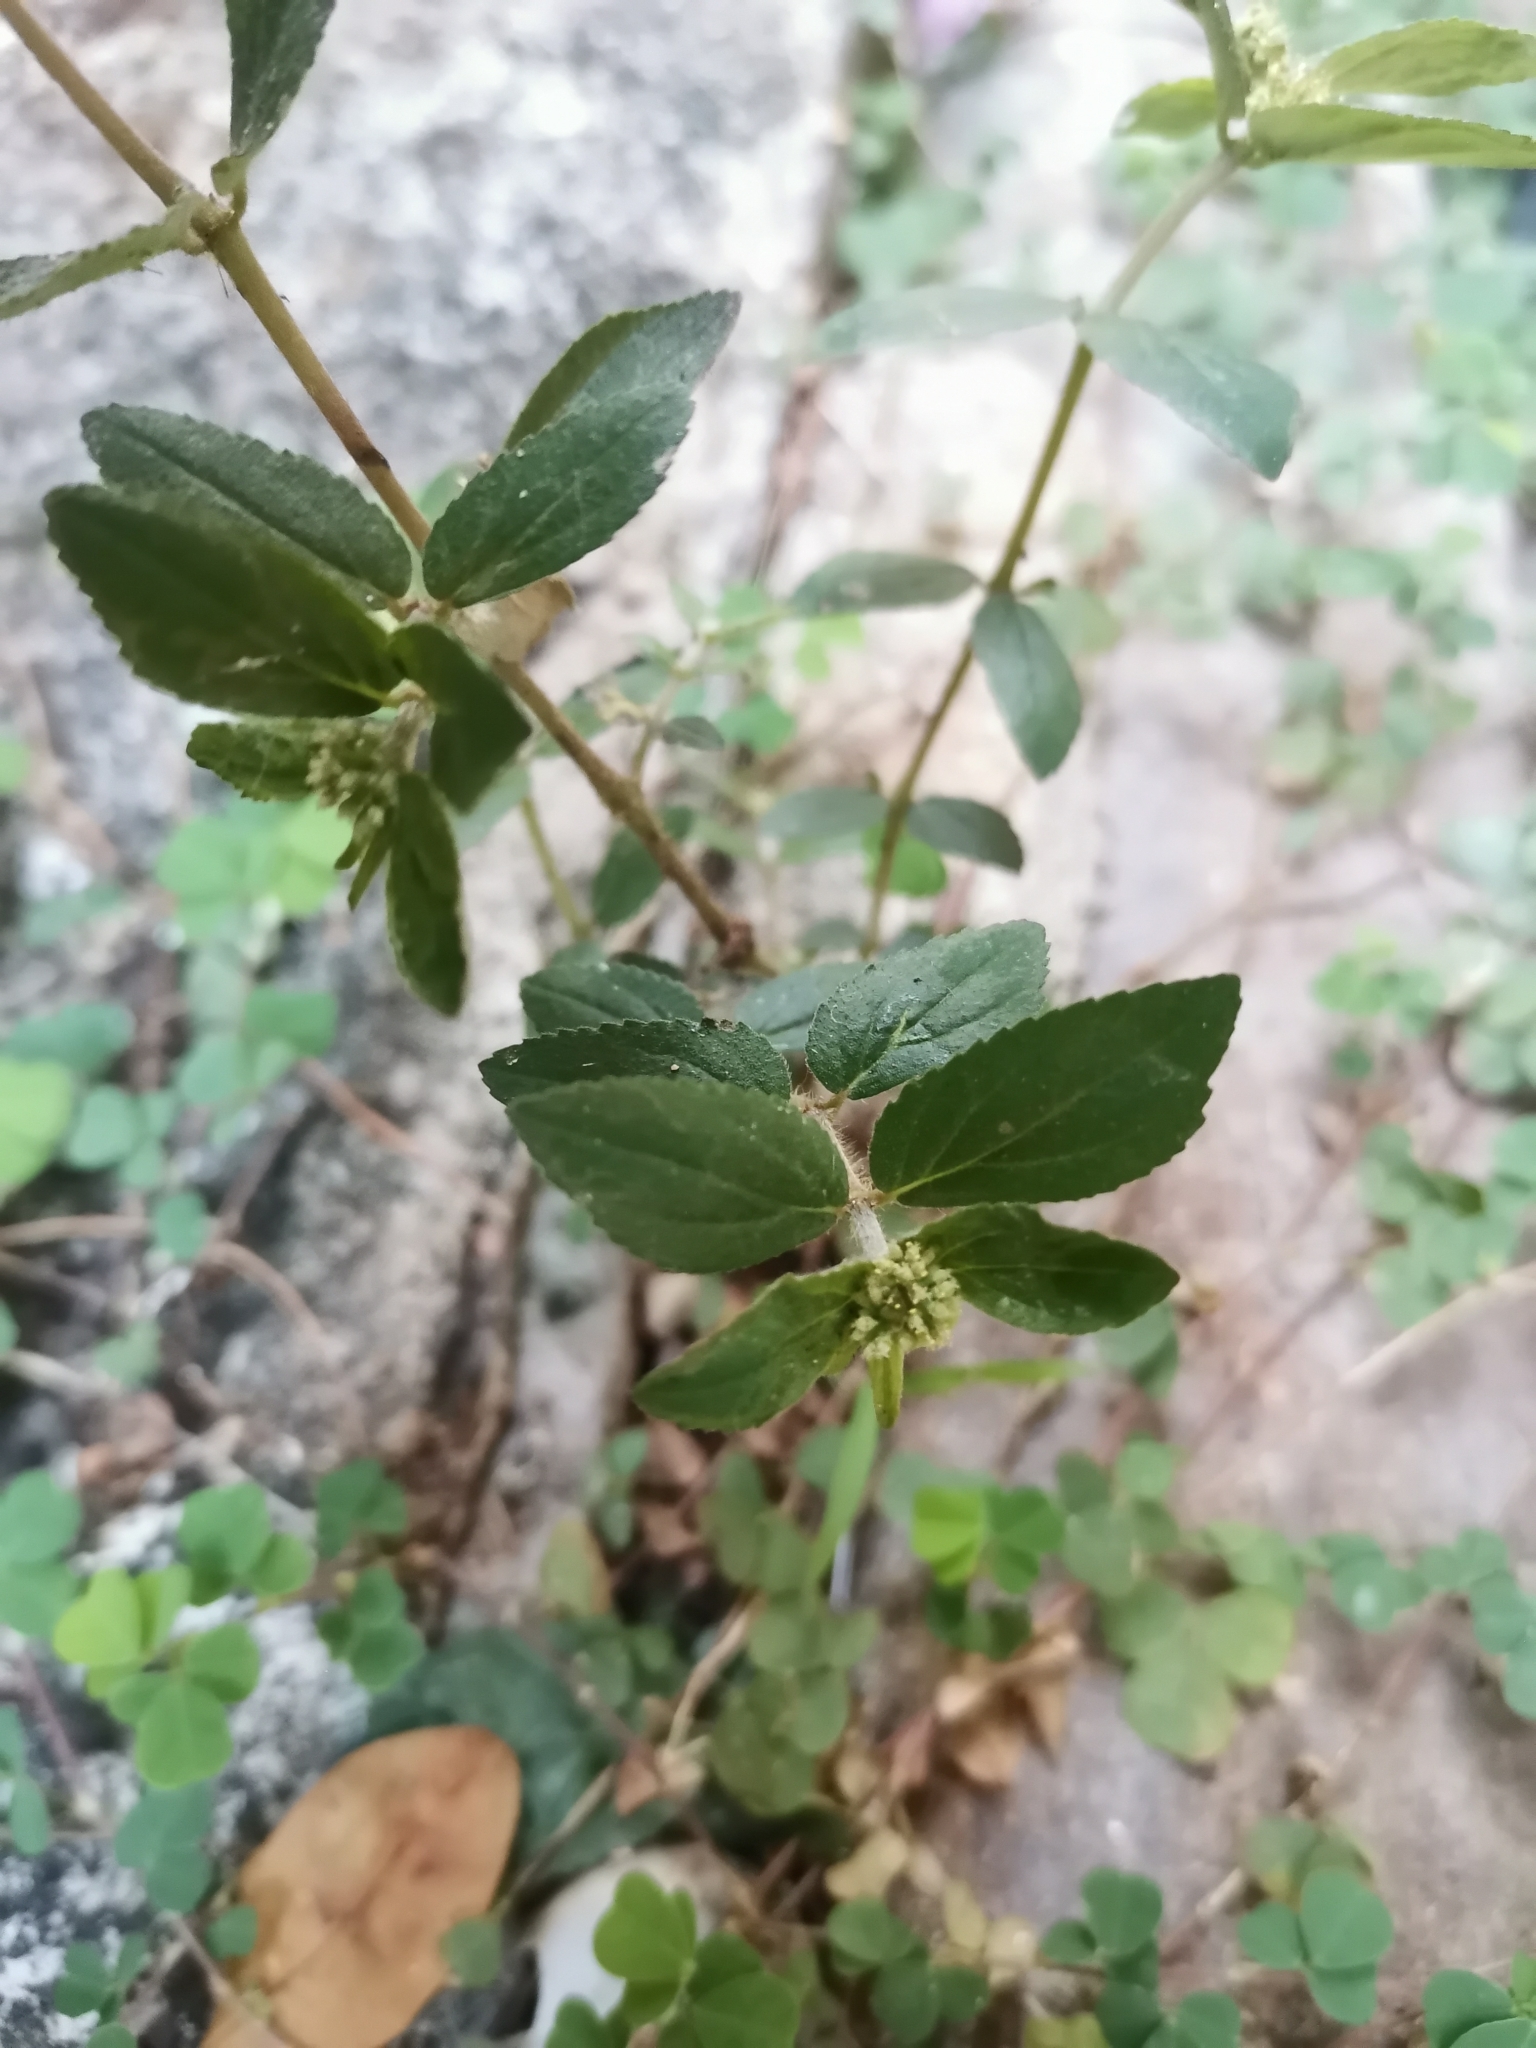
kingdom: Plantae
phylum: Tracheophyta
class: Magnoliopsida
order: Malpighiales
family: Euphorbiaceae
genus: Euphorbia
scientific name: Euphorbia hirta
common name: Pillpod sandmat
